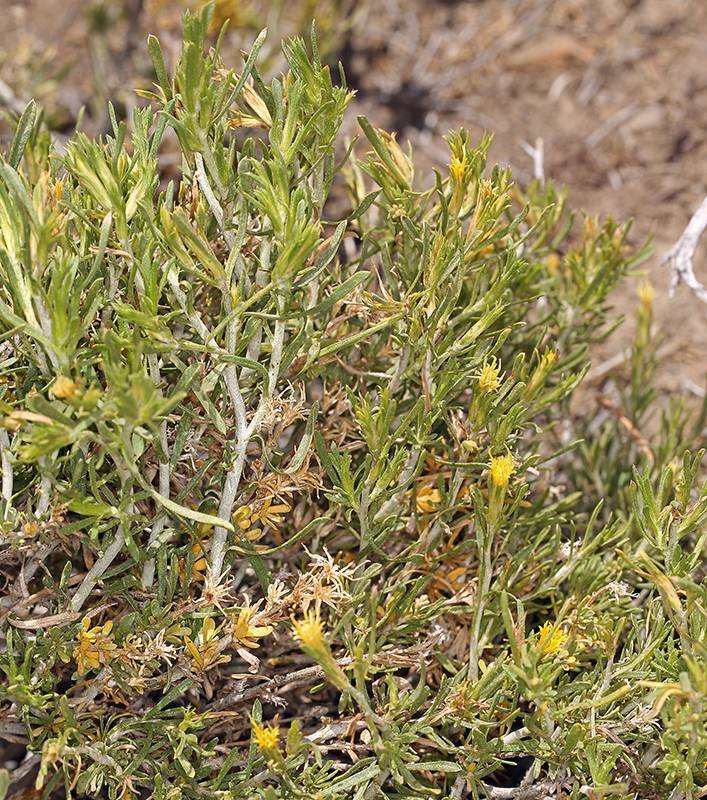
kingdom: Plantae
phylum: Tracheophyta
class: Magnoliopsida
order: Asterales
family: Asteraceae
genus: Ericameria
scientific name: Ericameria parryi
